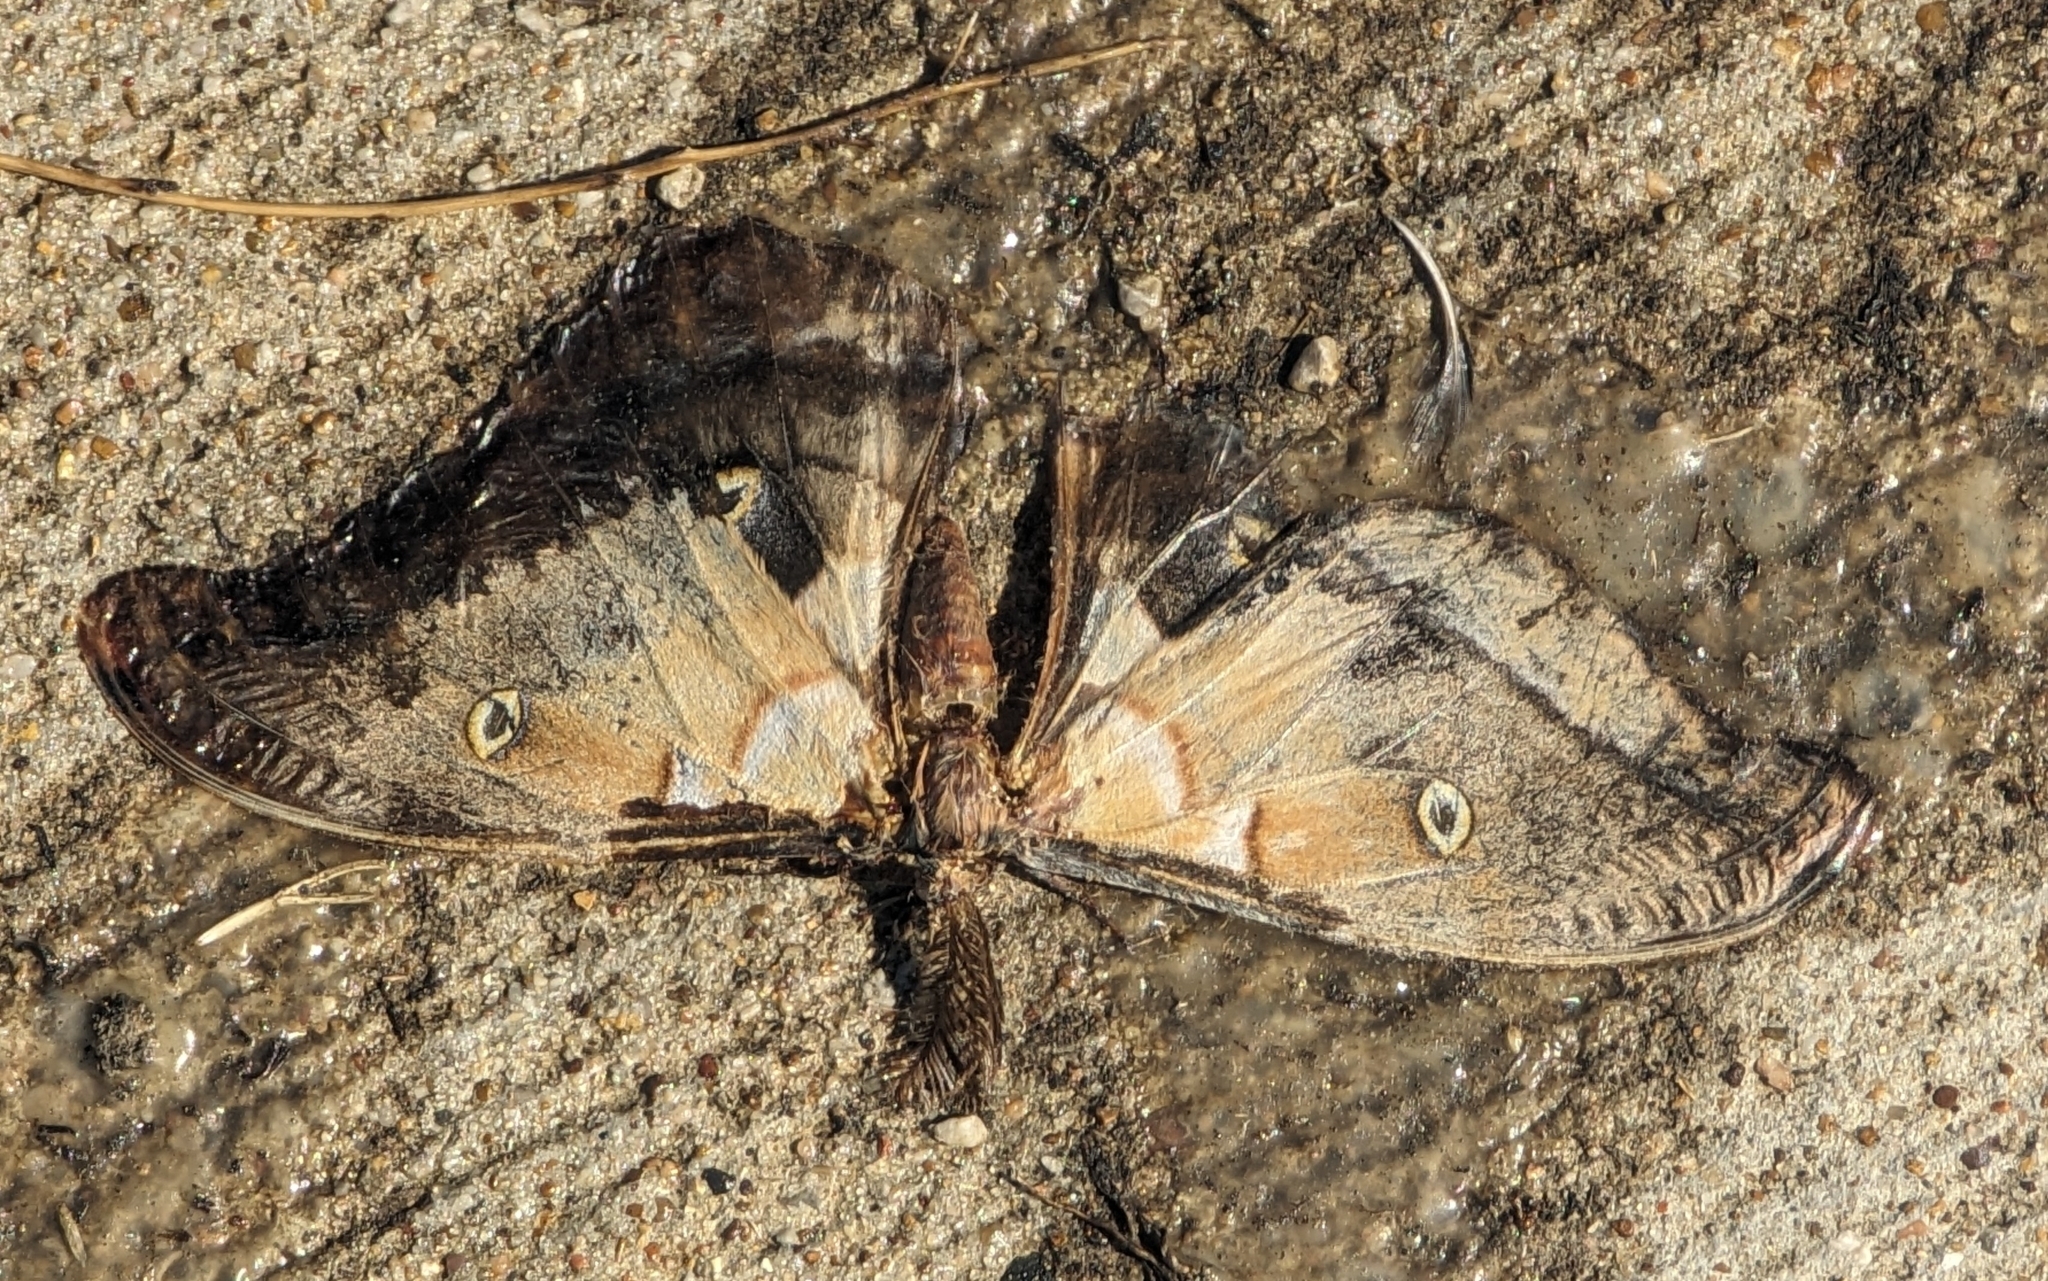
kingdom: Animalia
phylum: Arthropoda
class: Insecta
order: Lepidoptera
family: Saturniidae
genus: Antheraea
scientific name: Antheraea polyphemus
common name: Polyphemus moth
